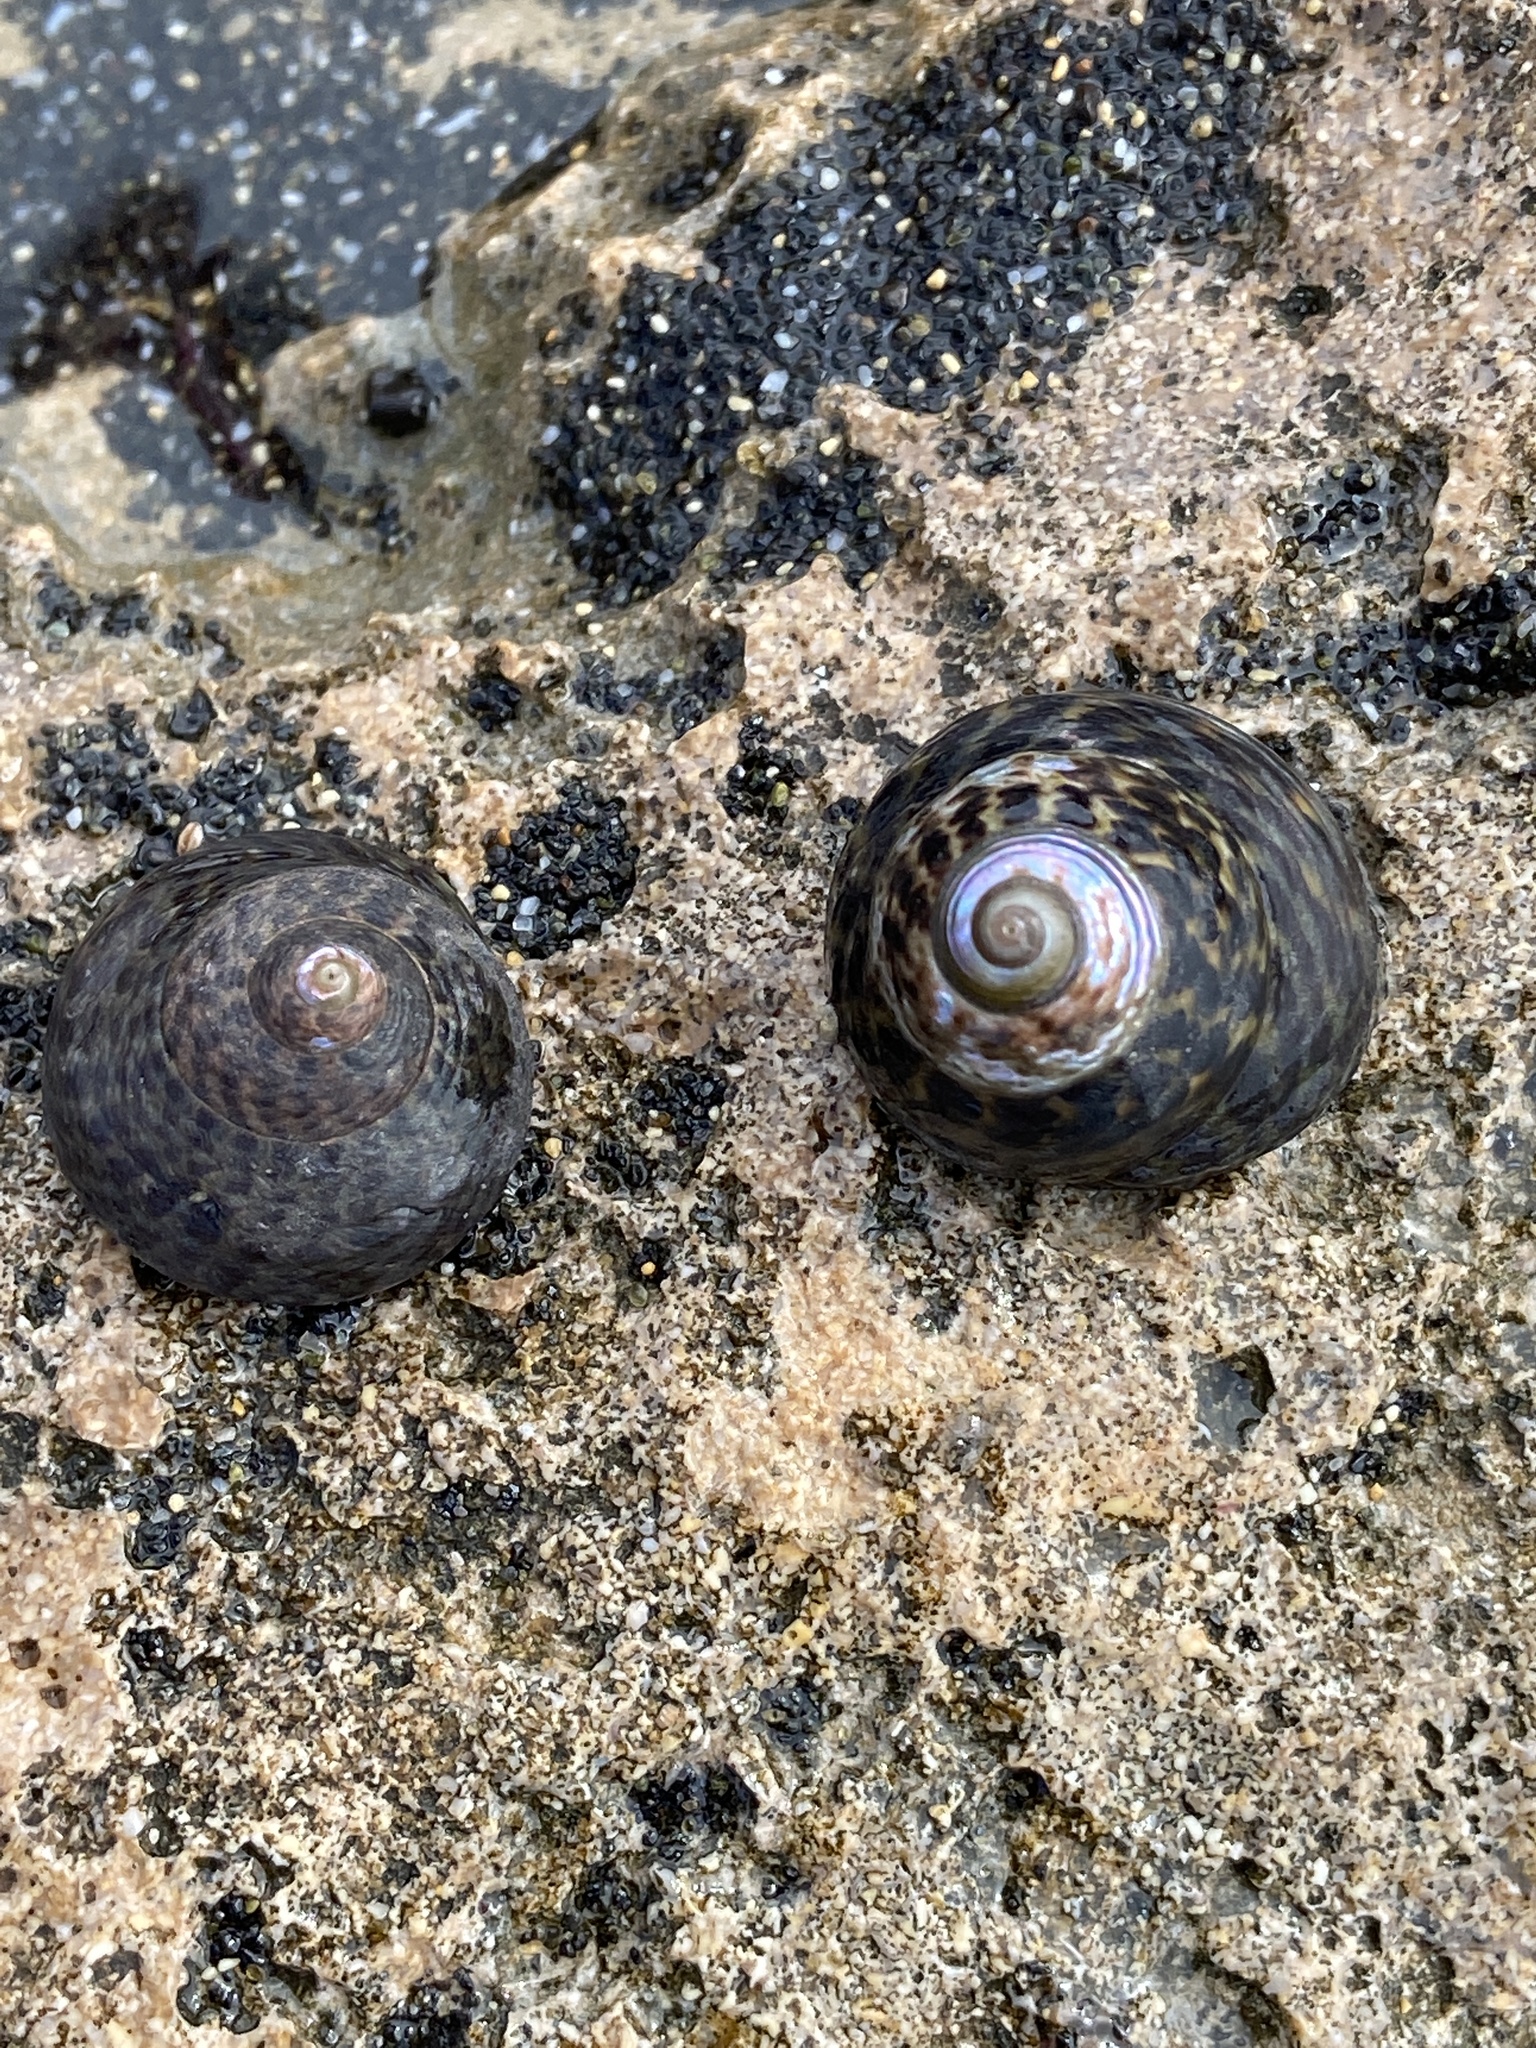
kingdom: Animalia
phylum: Mollusca
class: Gastropoda
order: Trochida
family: Trochidae
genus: Phorcus
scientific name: Phorcus sauciatus
